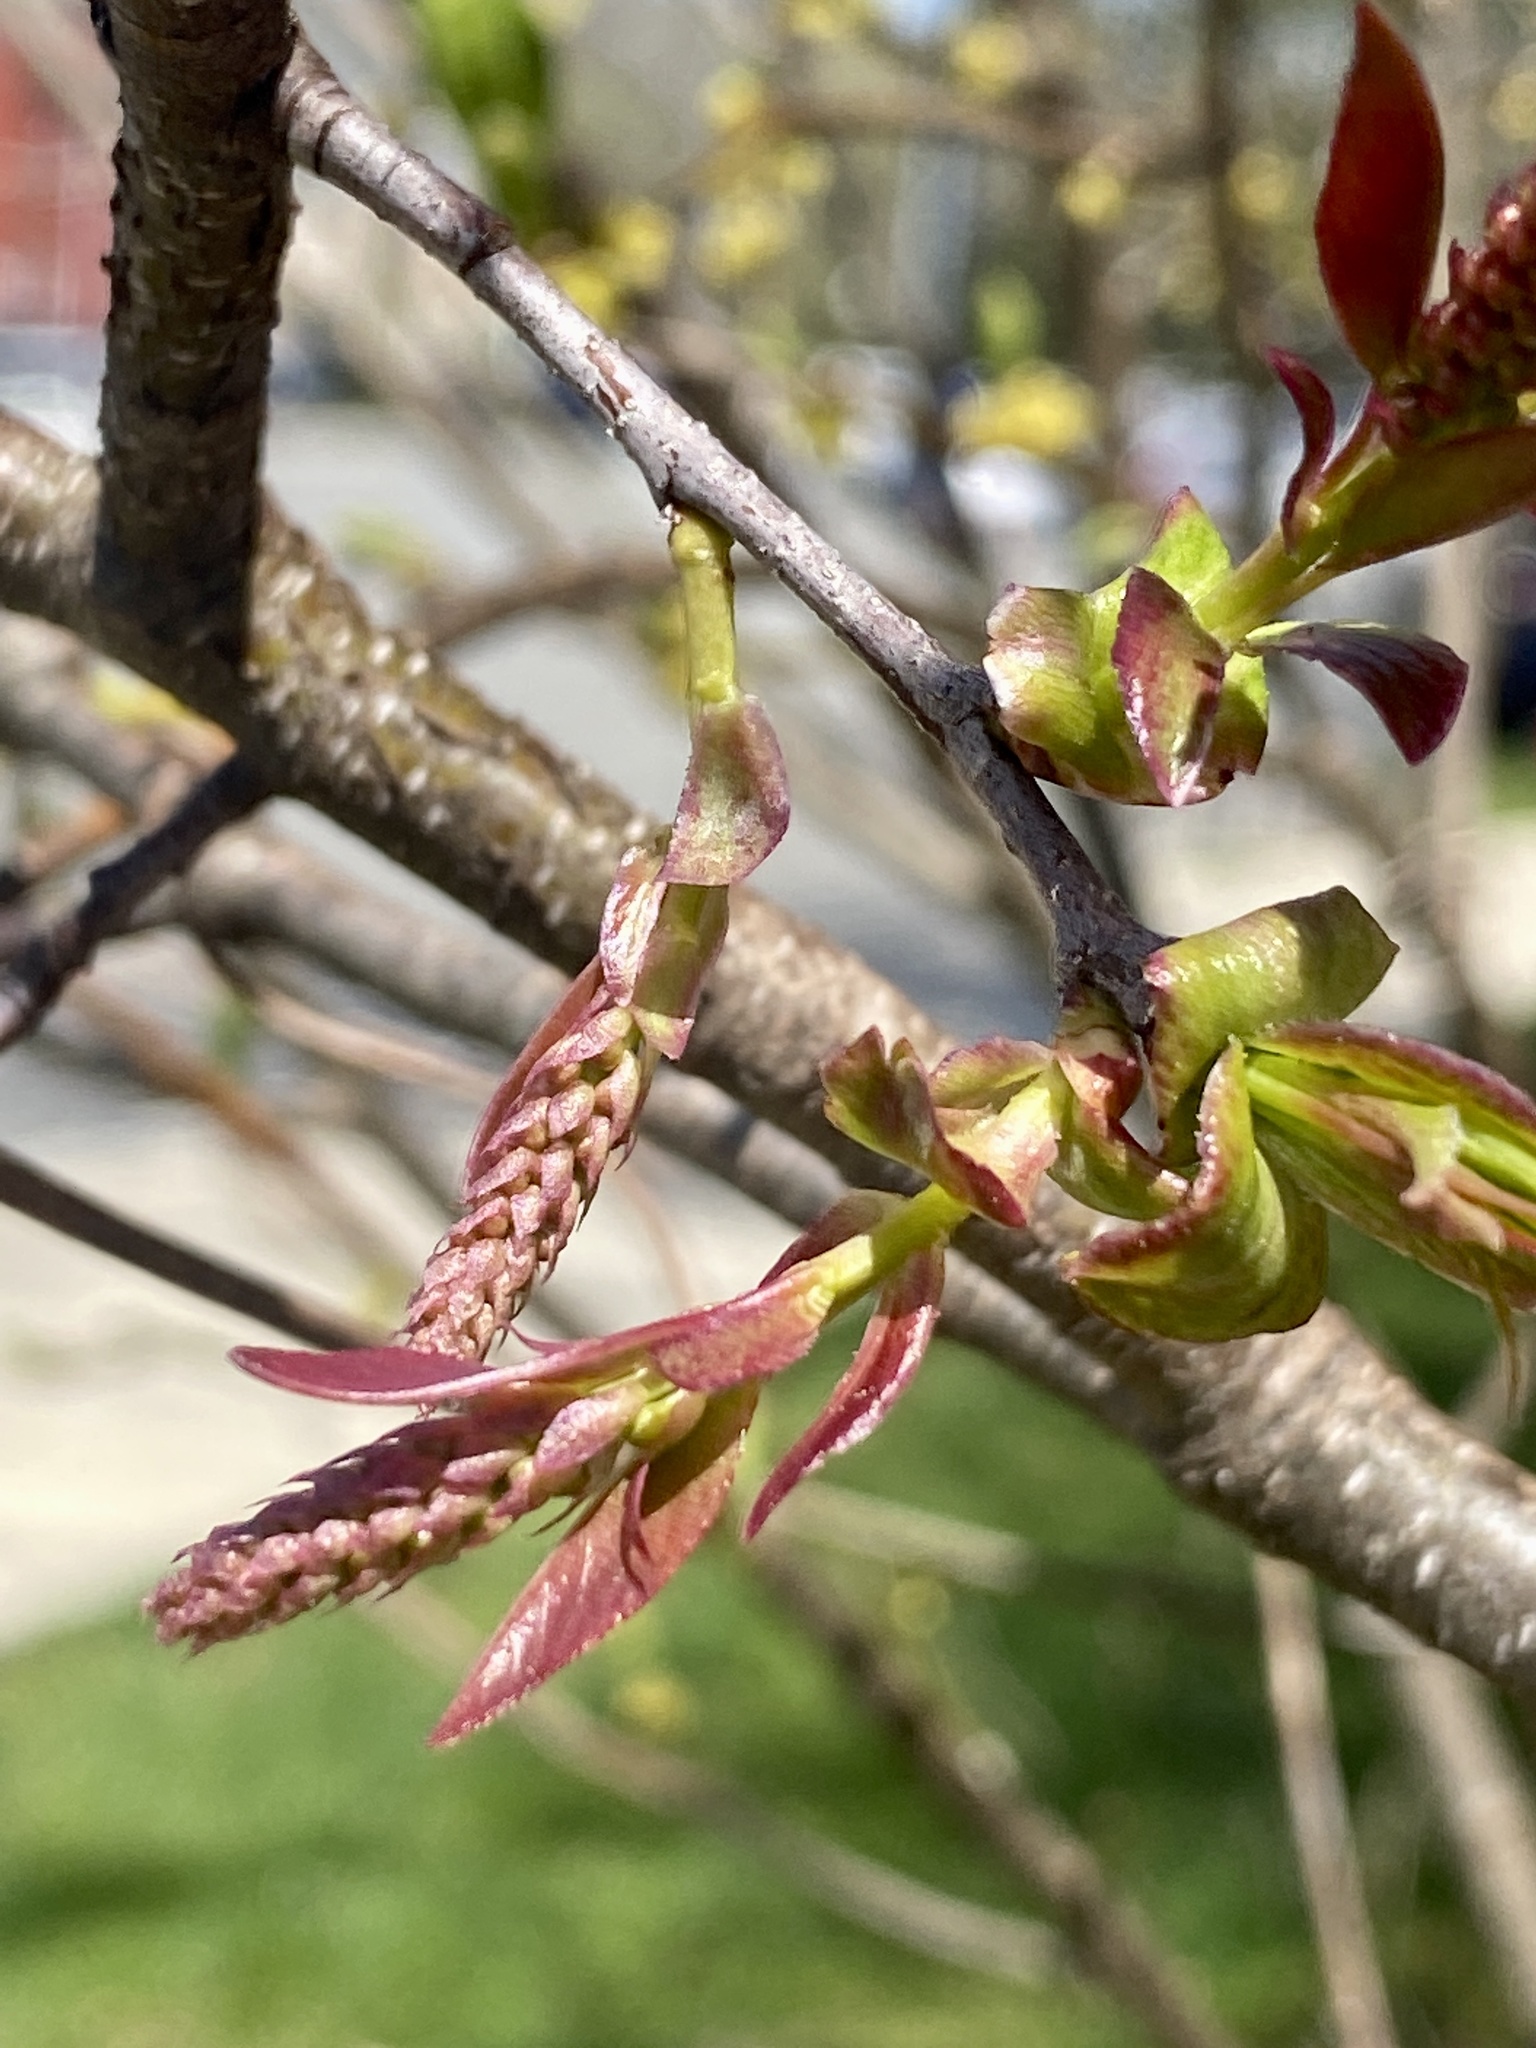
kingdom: Plantae
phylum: Tracheophyta
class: Magnoliopsida
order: Rosales
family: Rosaceae
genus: Prunus
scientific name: Prunus serotina
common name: Black cherry
